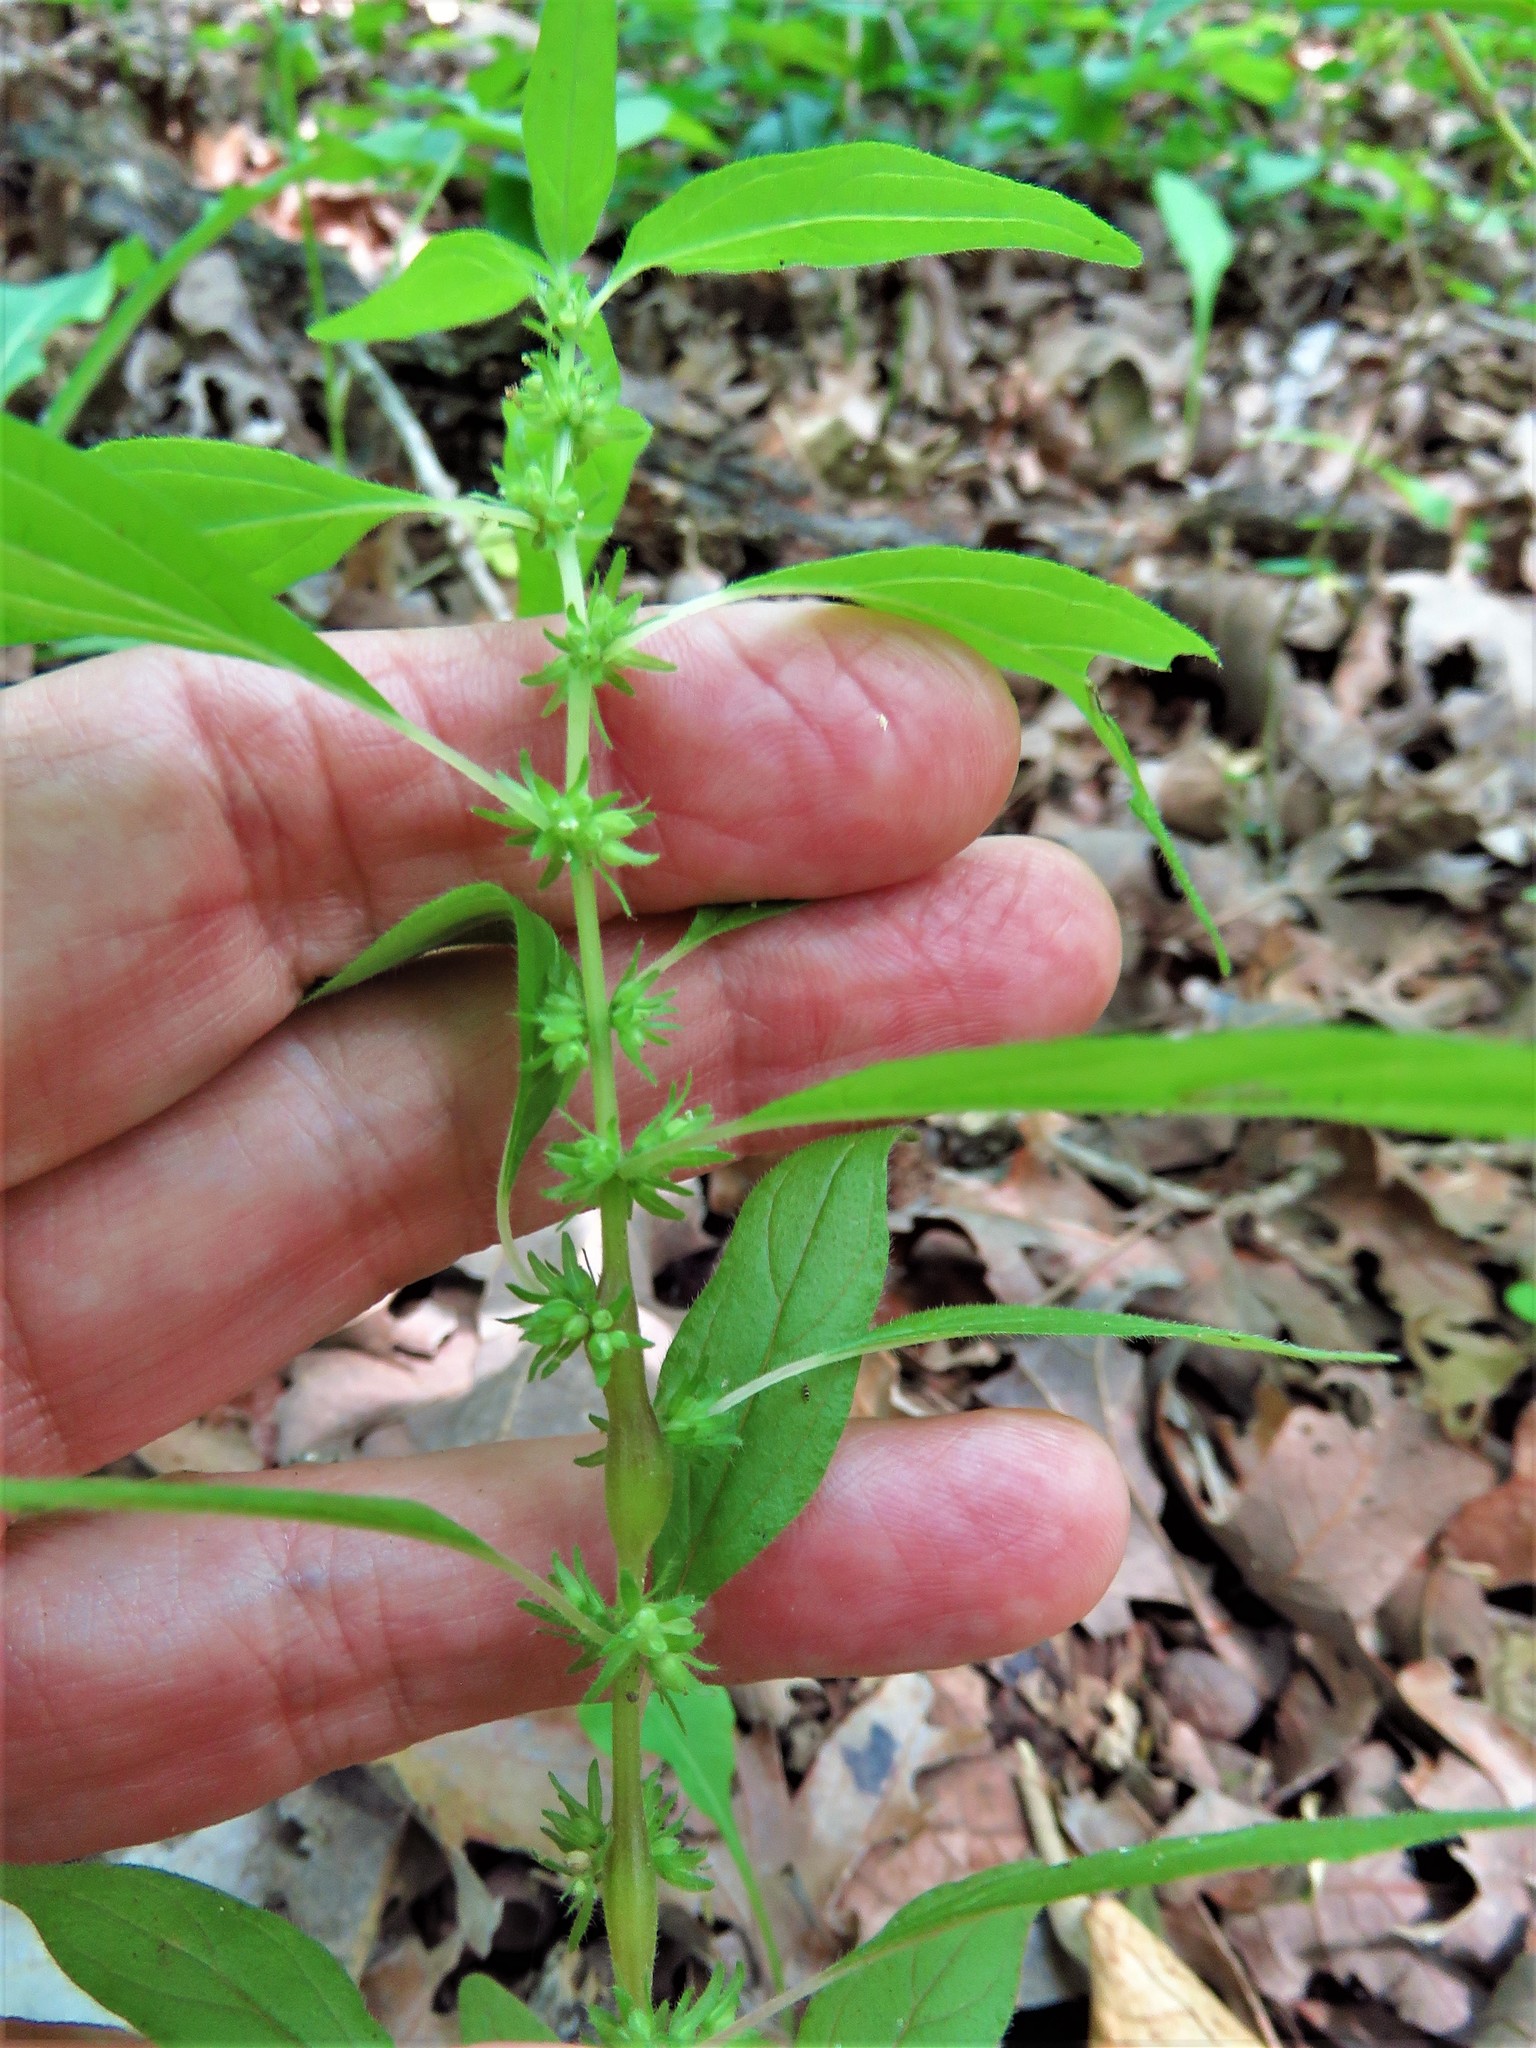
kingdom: Plantae
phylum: Tracheophyta
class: Magnoliopsida
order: Rosales
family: Urticaceae
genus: Parietaria
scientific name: Parietaria pensylvanica
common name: Pennsylvania pellitory
